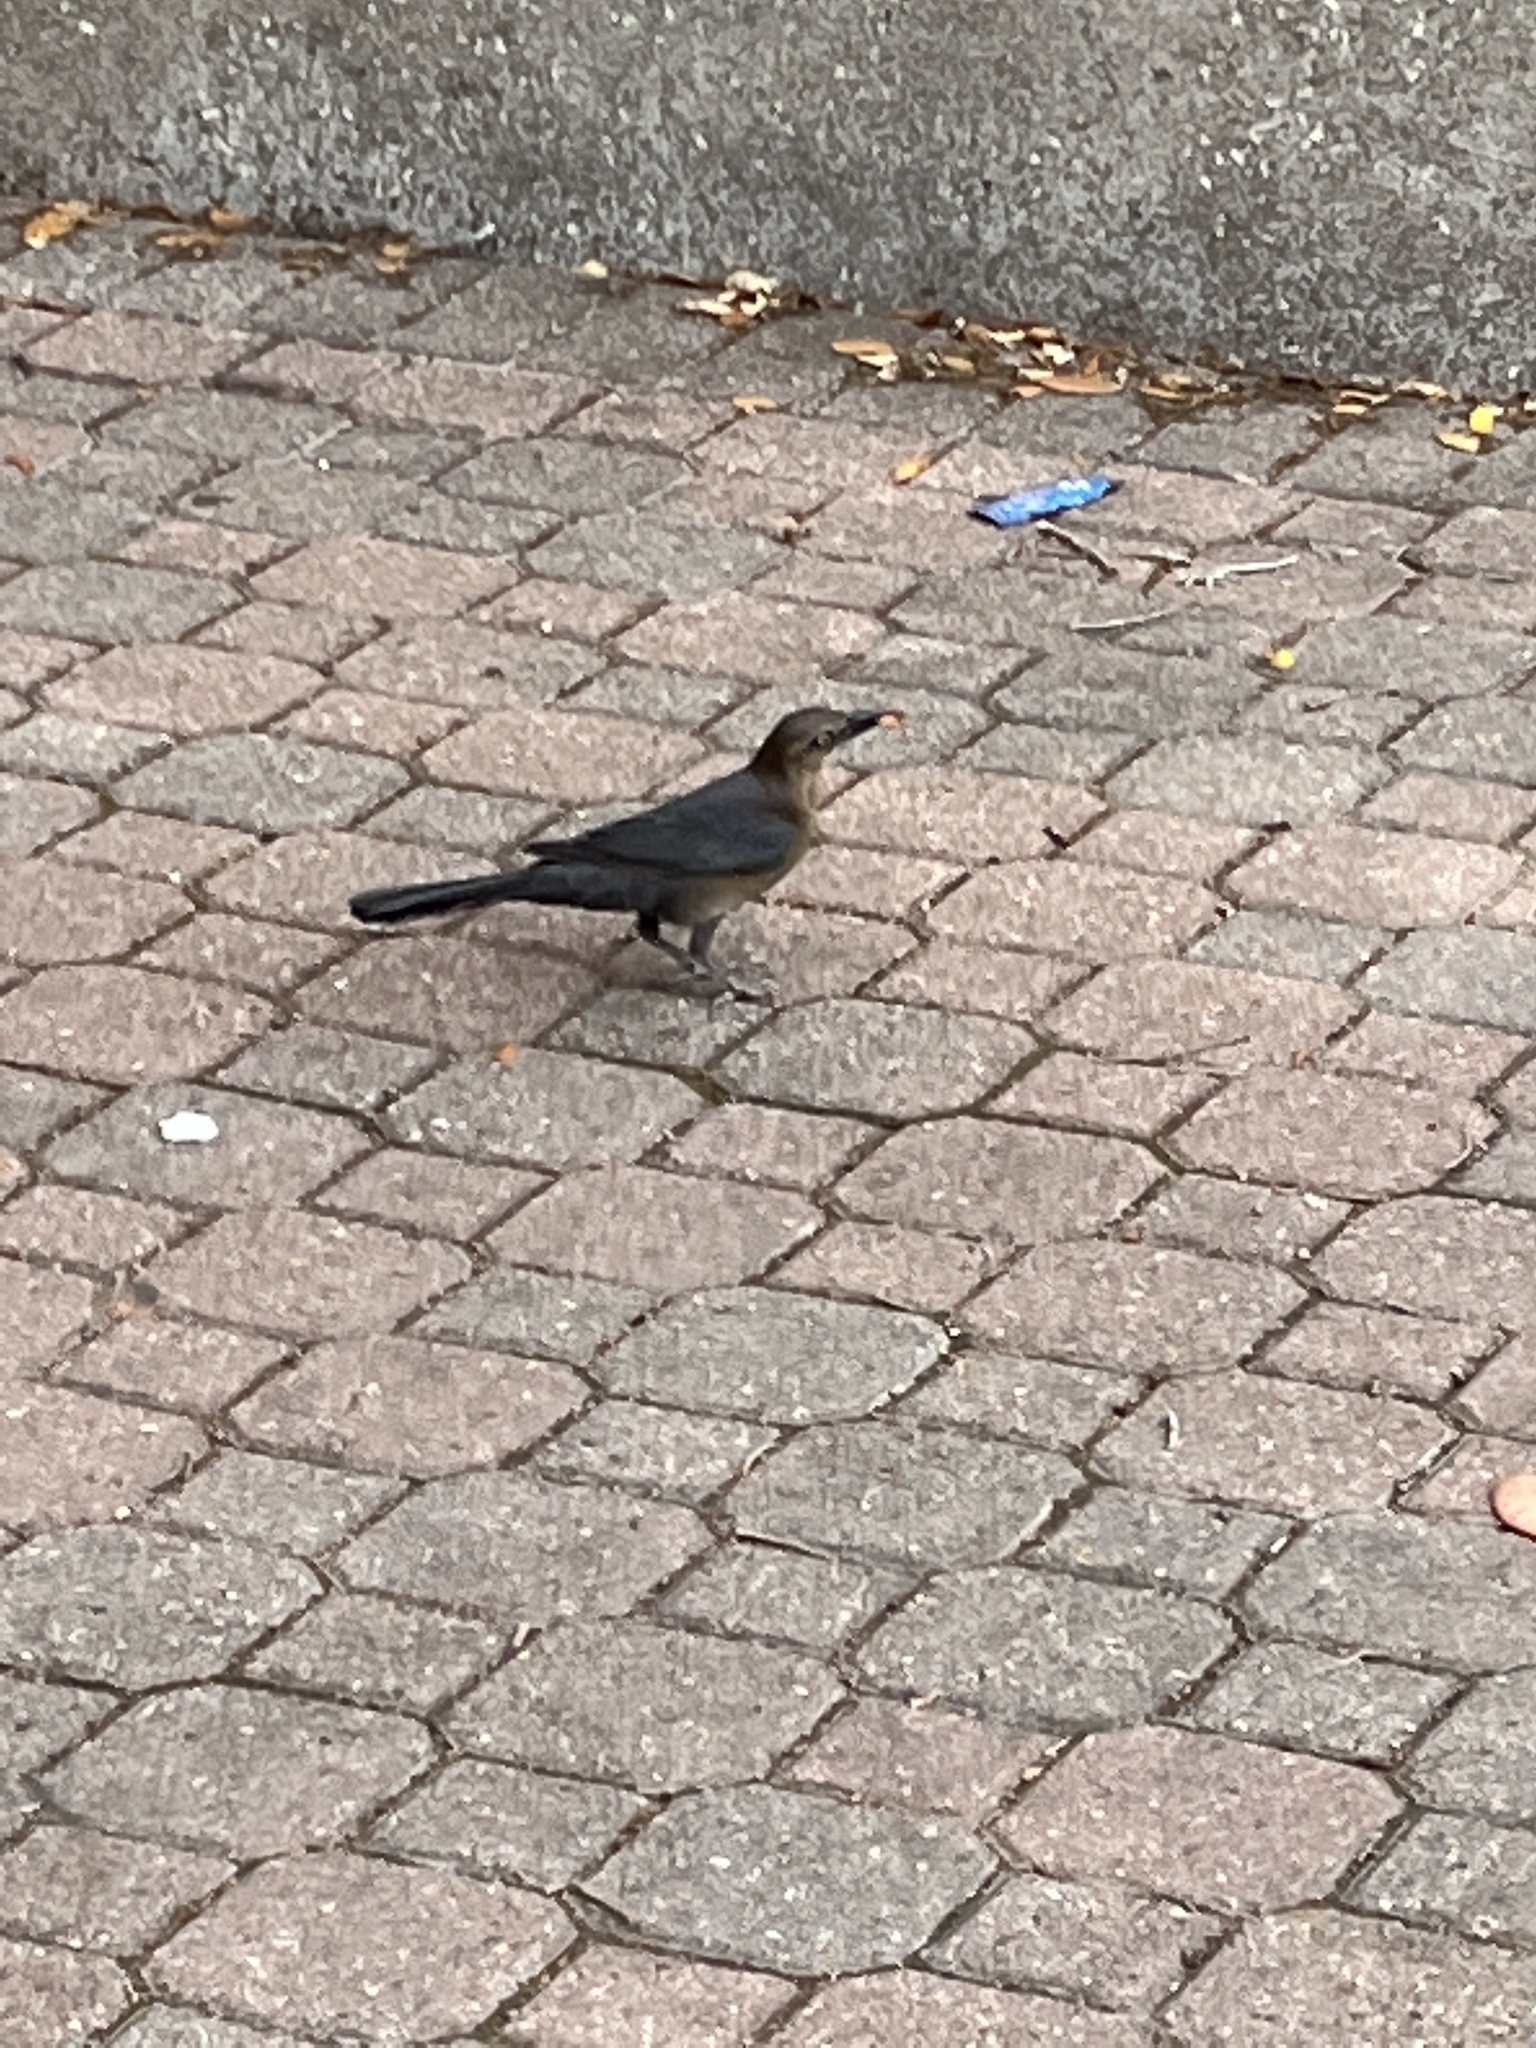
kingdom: Animalia
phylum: Chordata
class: Aves
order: Passeriformes
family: Icteridae
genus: Quiscalus
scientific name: Quiscalus mexicanus
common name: Great-tailed grackle
